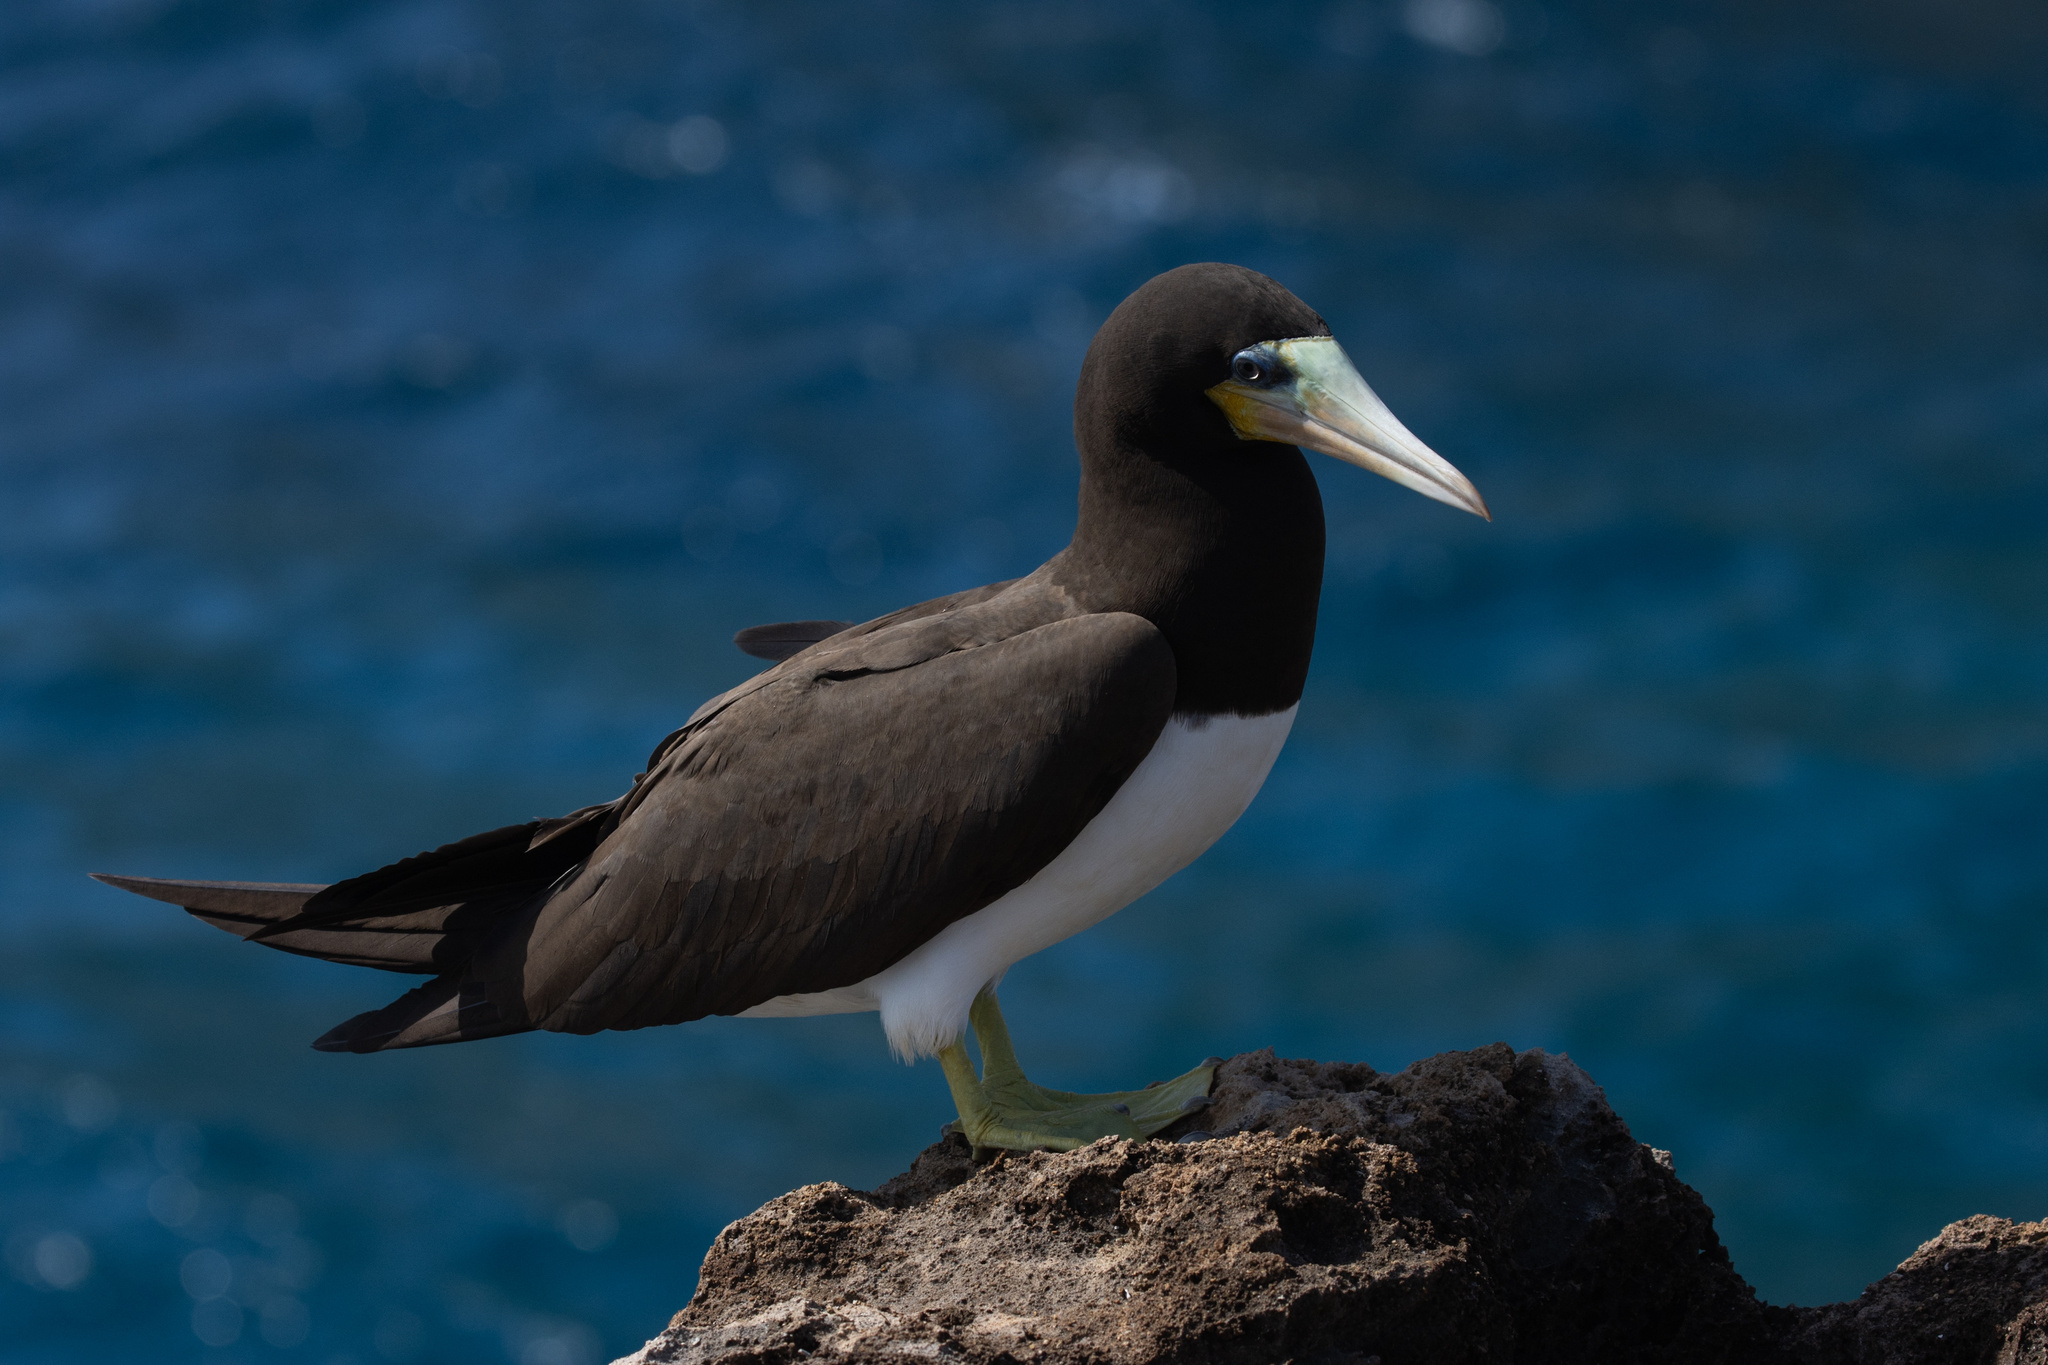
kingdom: Animalia
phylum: Chordata
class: Aves
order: Suliformes
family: Sulidae
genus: Sula
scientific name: Sula leucogaster
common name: Brown booby
